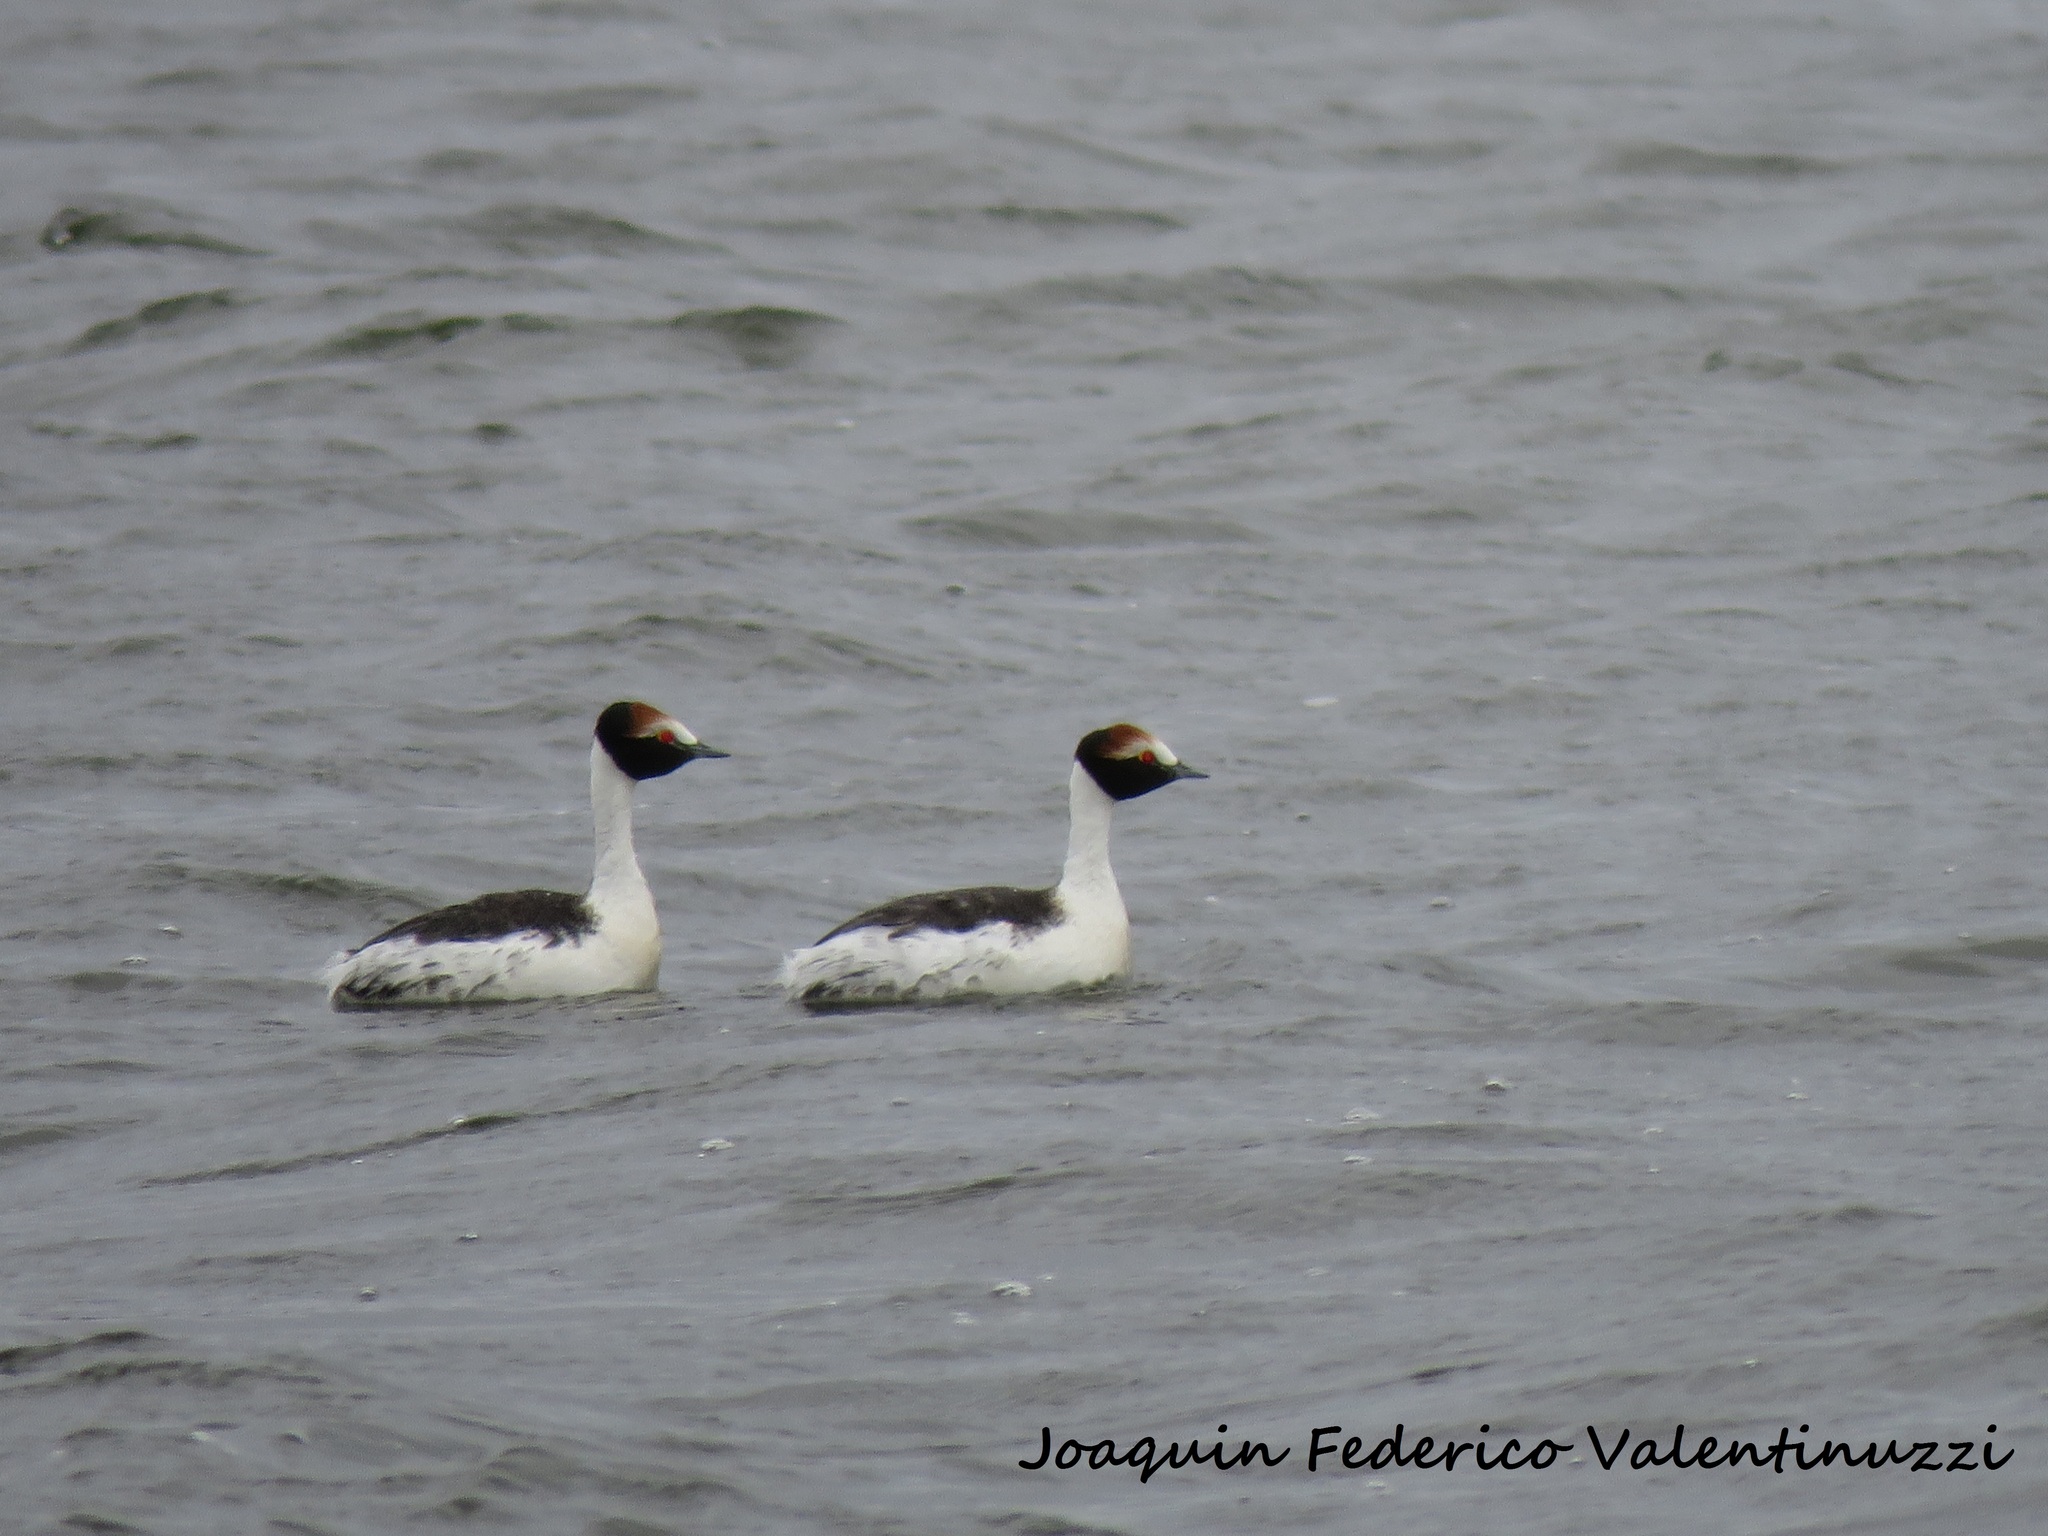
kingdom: Animalia
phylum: Chordata
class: Aves
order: Podicipediformes
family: Podicipedidae
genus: Podiceps
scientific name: Podiceps gallardoi
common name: Hooded grebe
